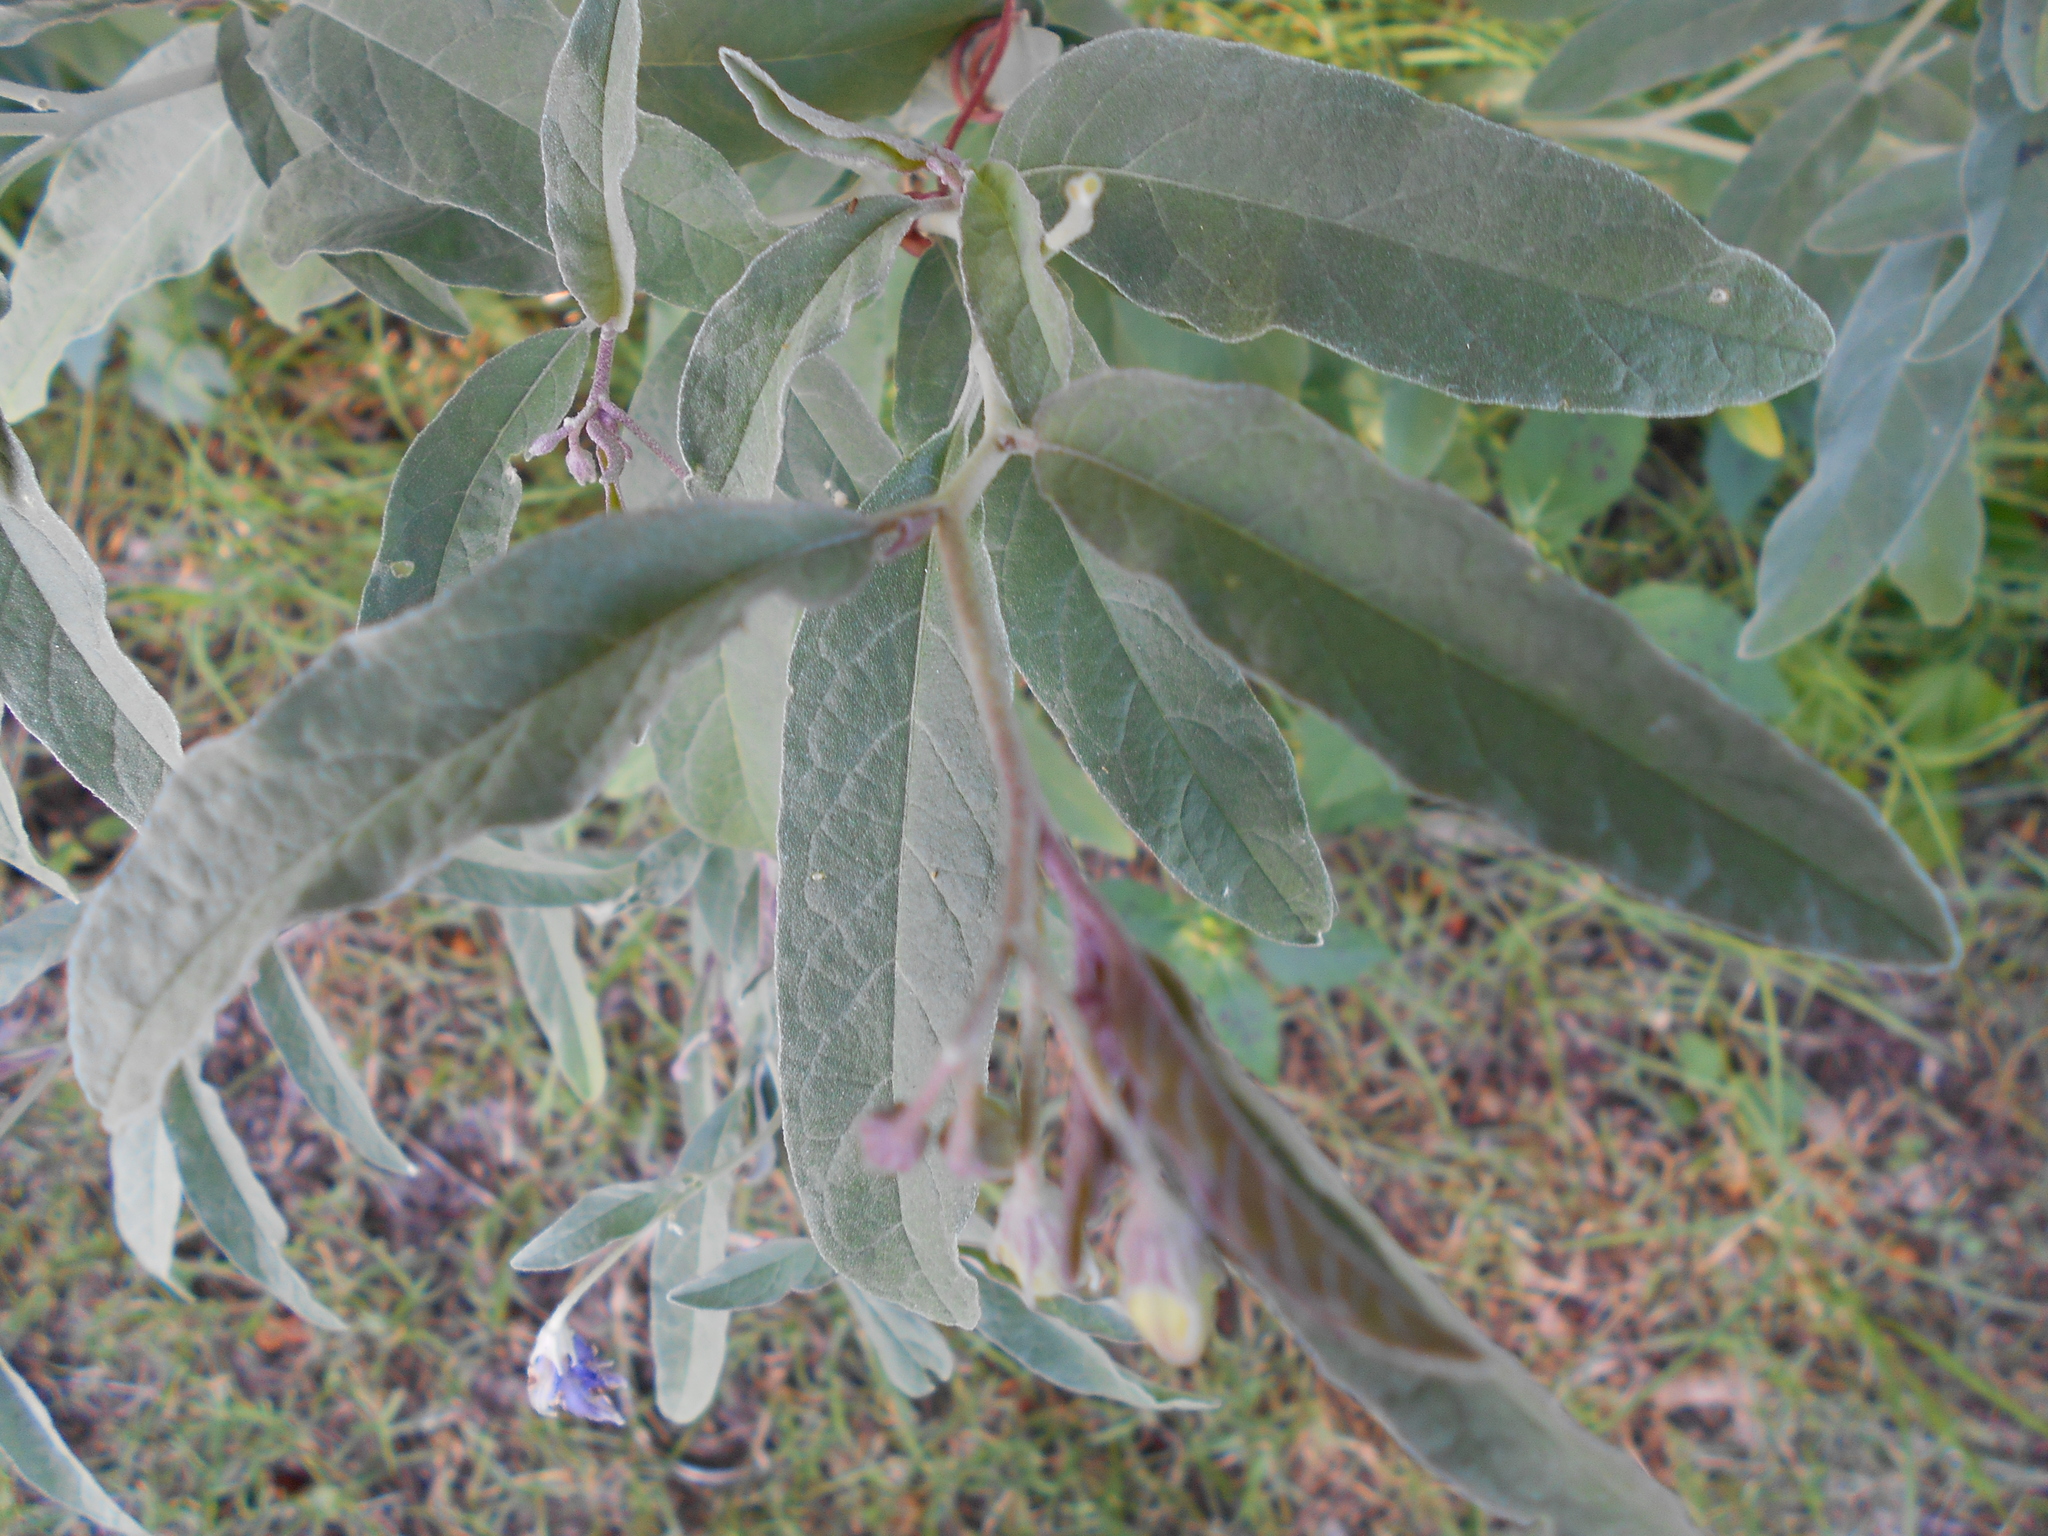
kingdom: Plantae
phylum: Tracheophyta
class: Magnoliopsida
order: Solanales
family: Solanaceae
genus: Solanum
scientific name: Solanum elaeagnifolium
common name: Silverleaf nightshade
